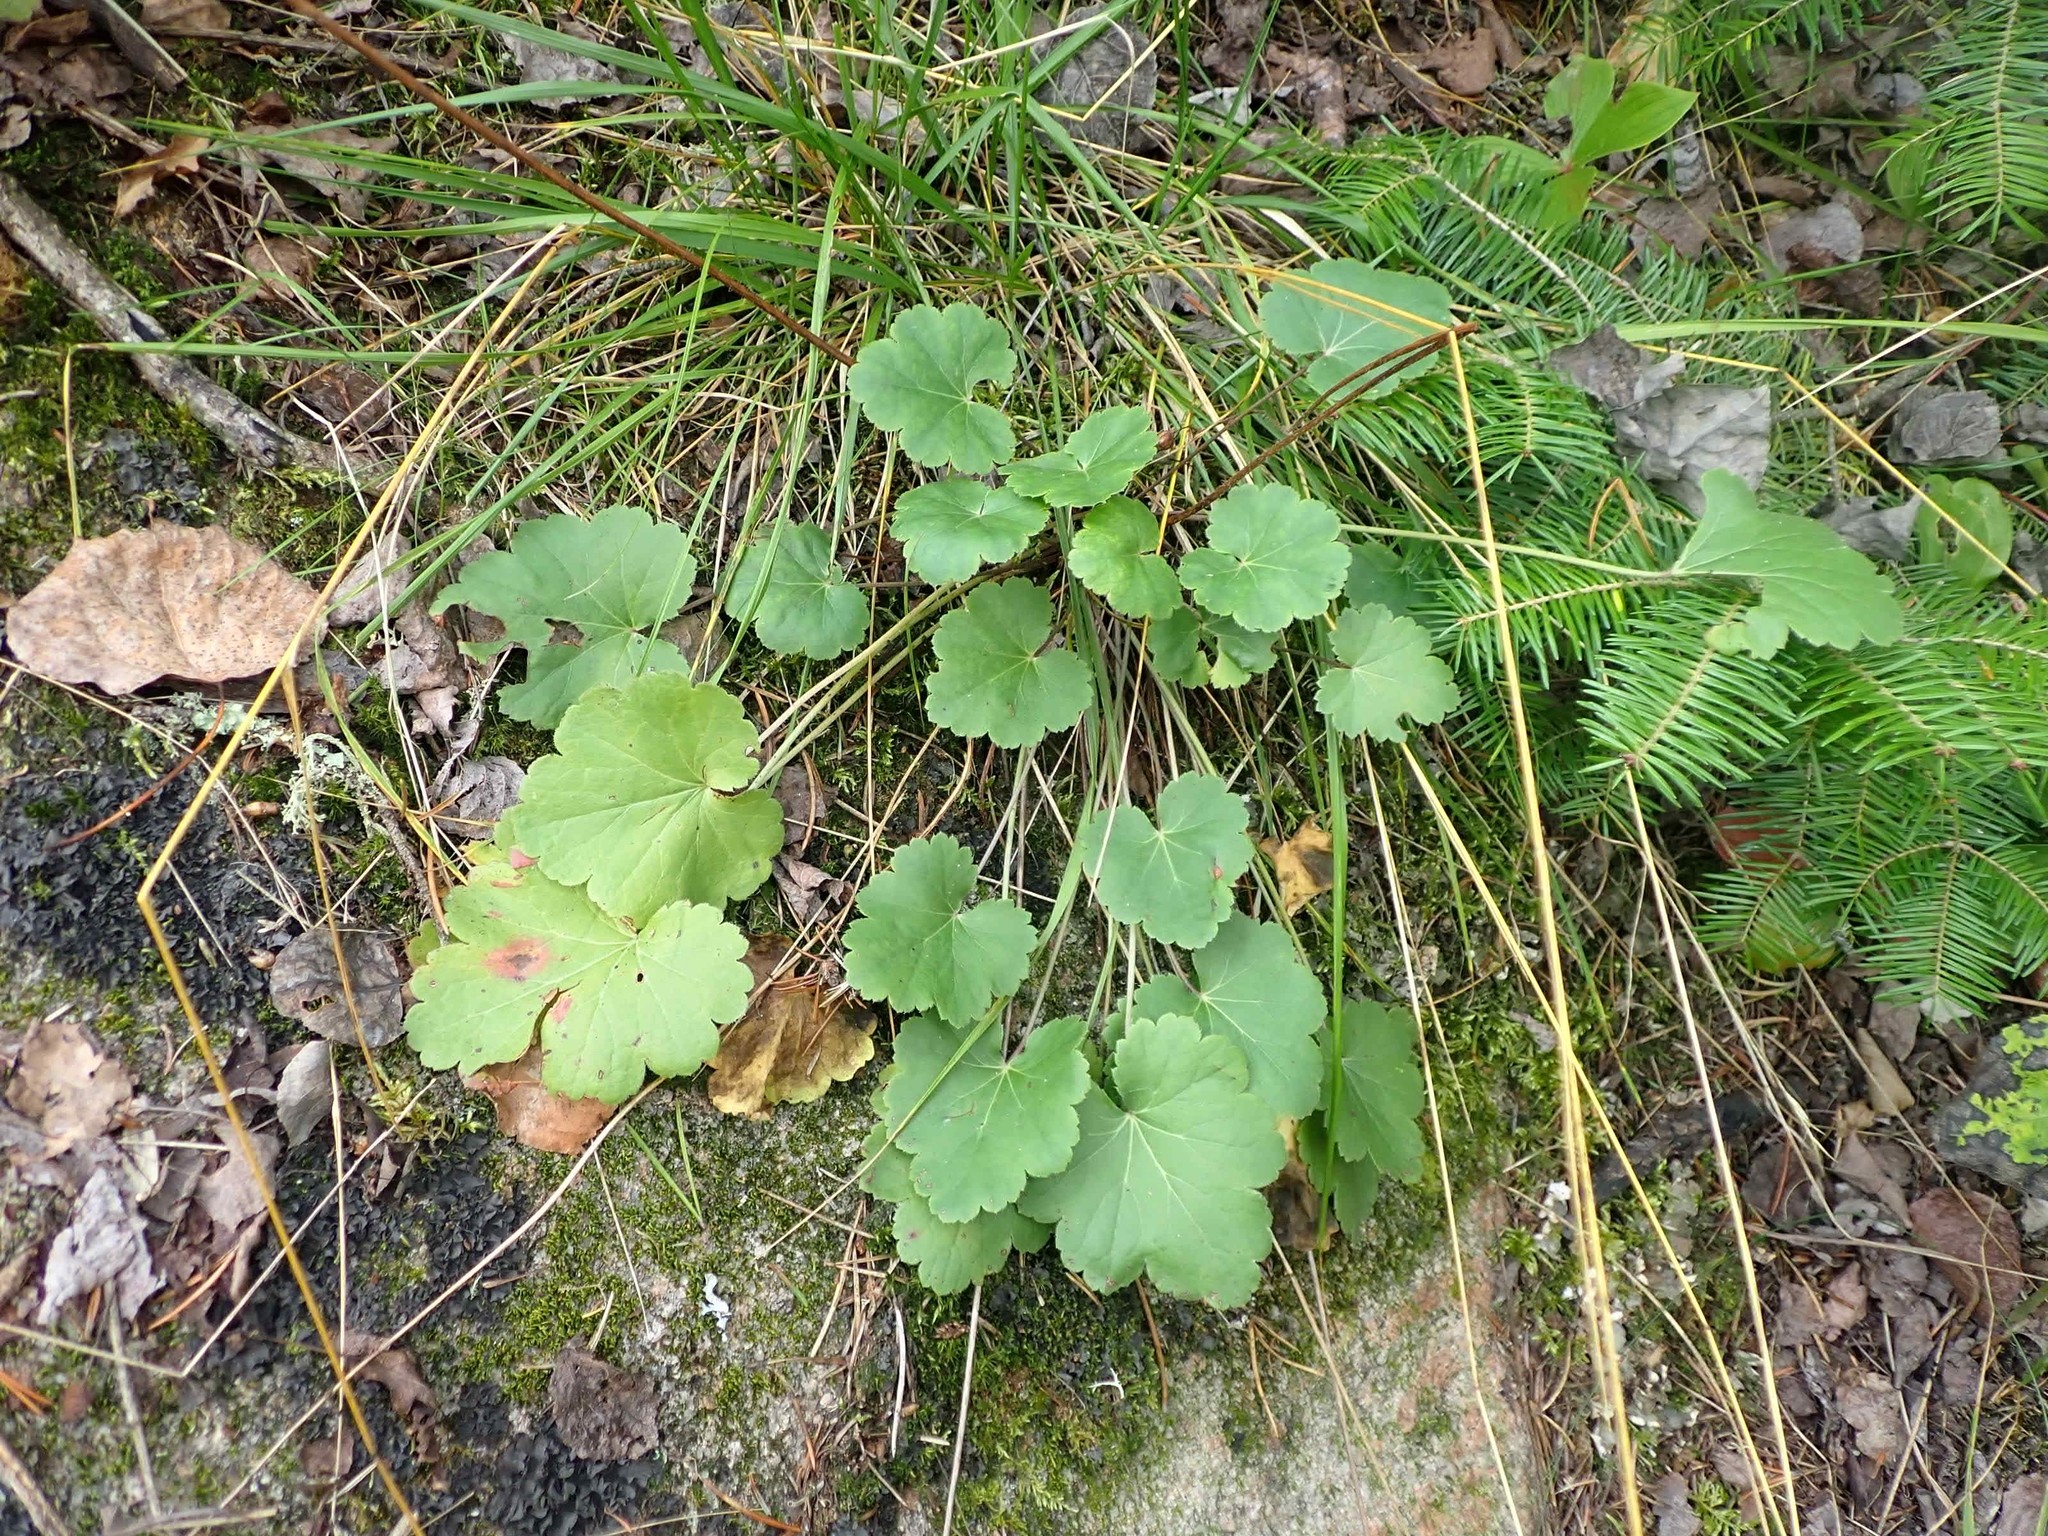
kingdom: Plantae
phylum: Tracheophyta
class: Magnoliopsida
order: Saxifragales
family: Saxifragaceae
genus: Heuchera
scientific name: Heuchera richardsonii
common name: Richardson's alumroot
